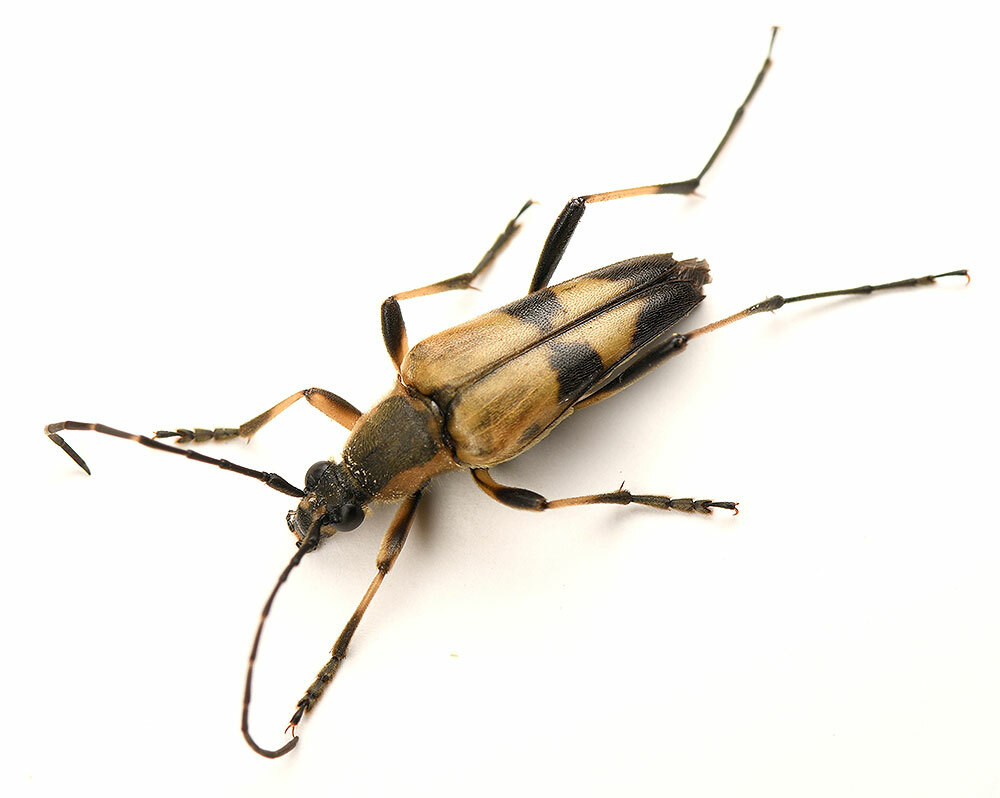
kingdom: Animalia
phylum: Arthropoda
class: Insecta
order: Coleoptera
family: Cerambycidae
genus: Etorofus
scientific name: Etorofus obliteratus
